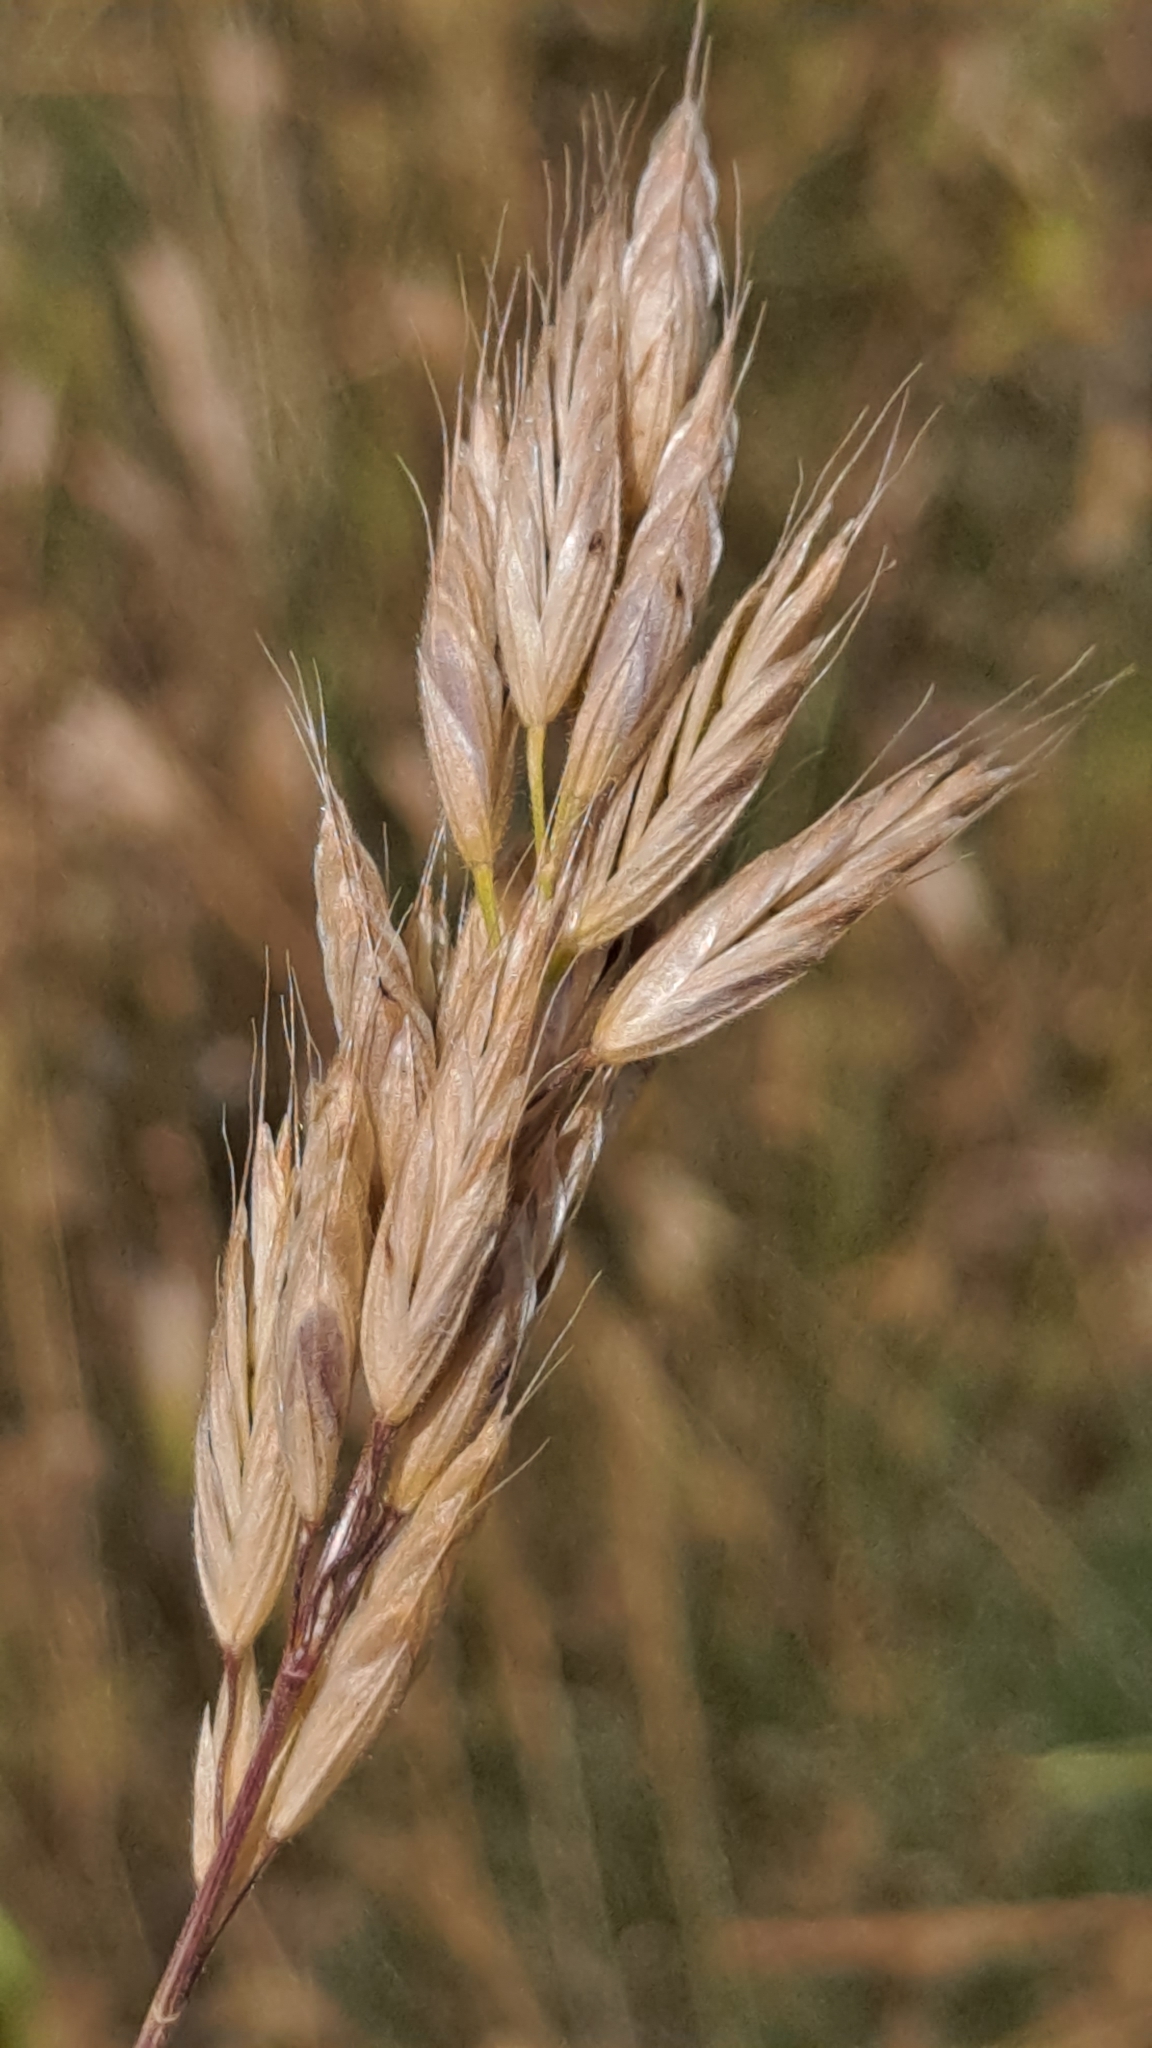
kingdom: Plantae
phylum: Tracheophyta
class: Liliopsida
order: Poales
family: Poaceae
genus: Bromus
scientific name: Bromus hordeaceus
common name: Soft brome
